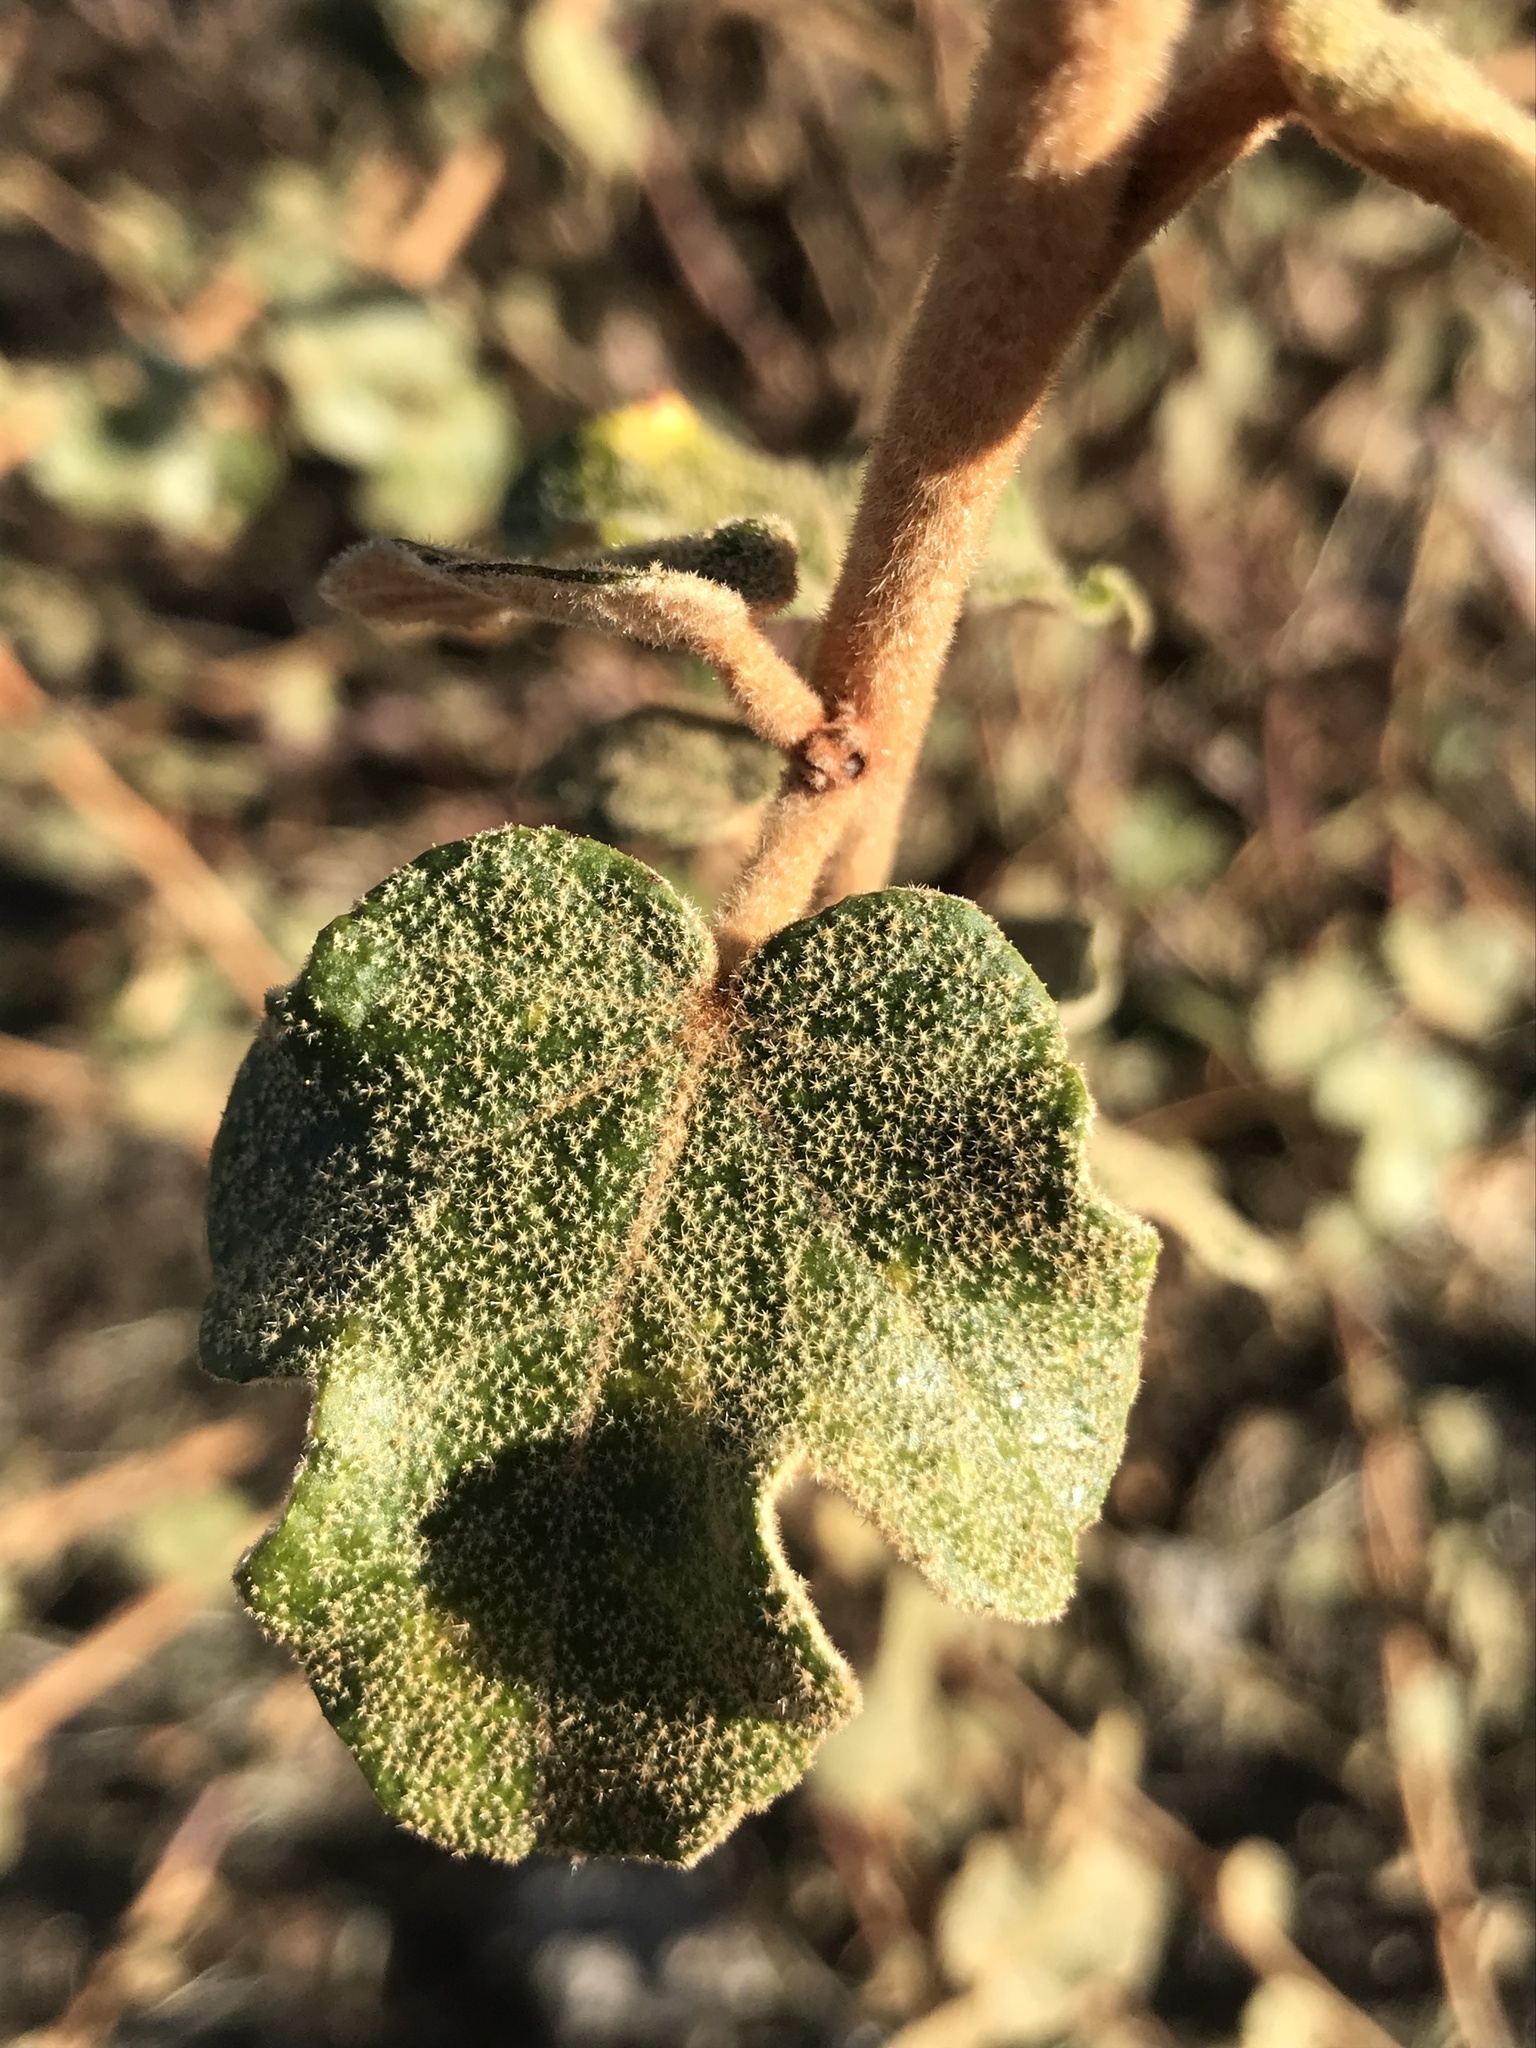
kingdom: Plantae
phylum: Tracheophyta
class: Magnoliopsida
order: Malvales
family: Malvaceae
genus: Fremontodendron
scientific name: Fremontodendron californicum
